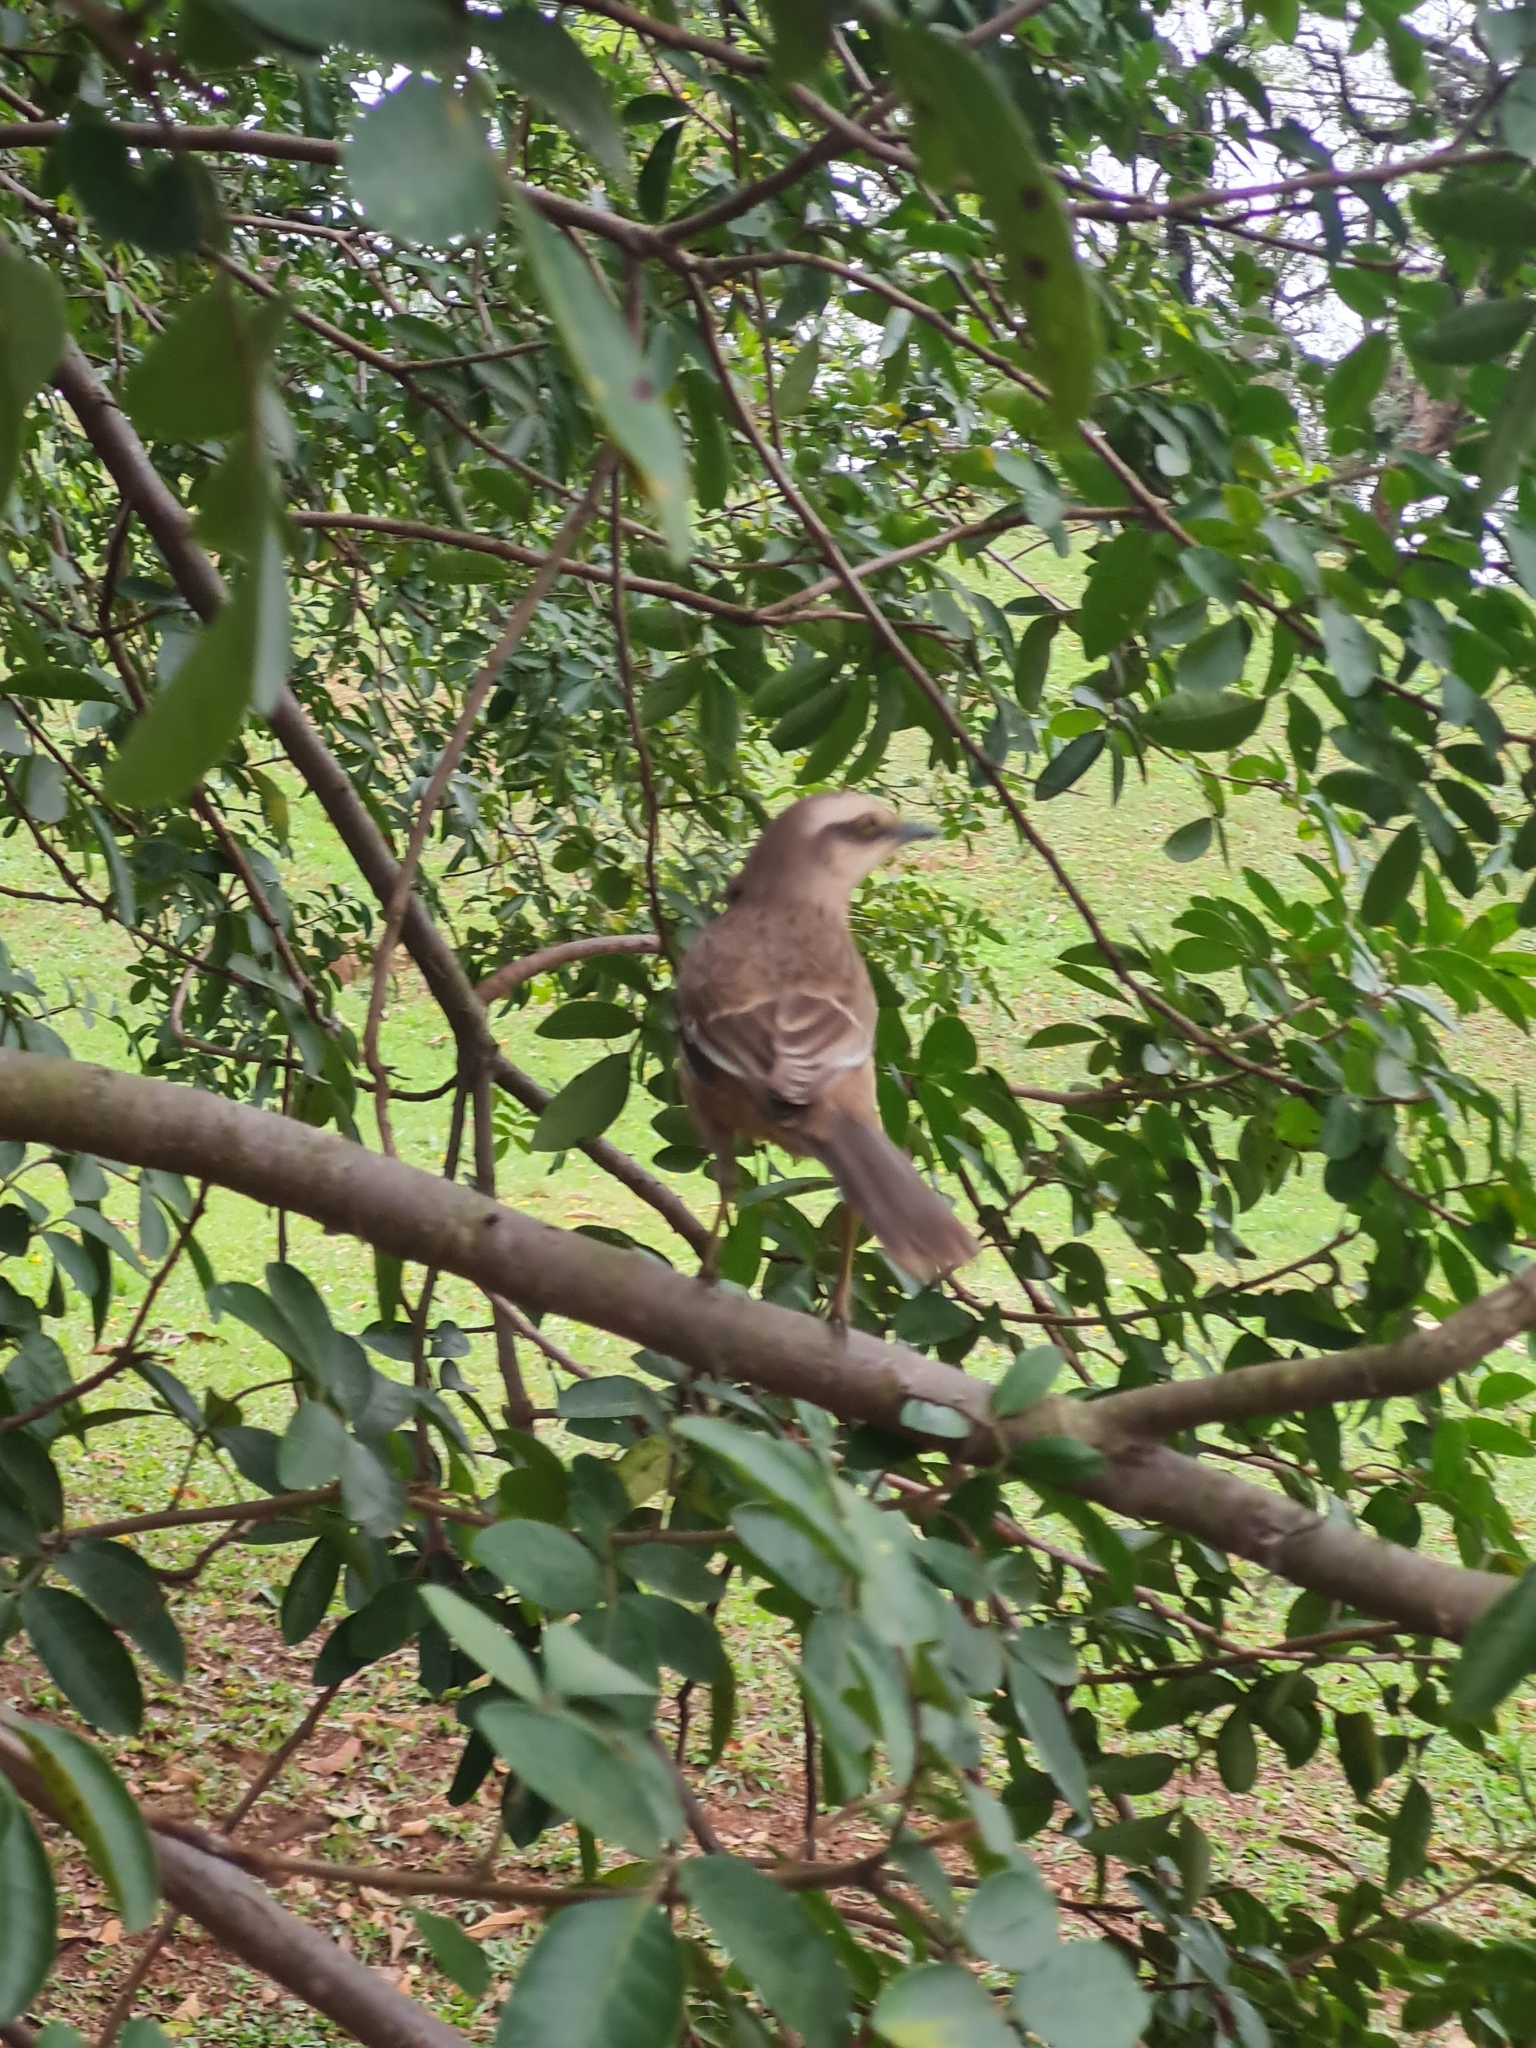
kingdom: Animalia
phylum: Chordata
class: Aves
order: Passeriformes
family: Mimidae
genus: Mimus
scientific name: Mimus saturninus
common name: Chalk-browed mockingbird
